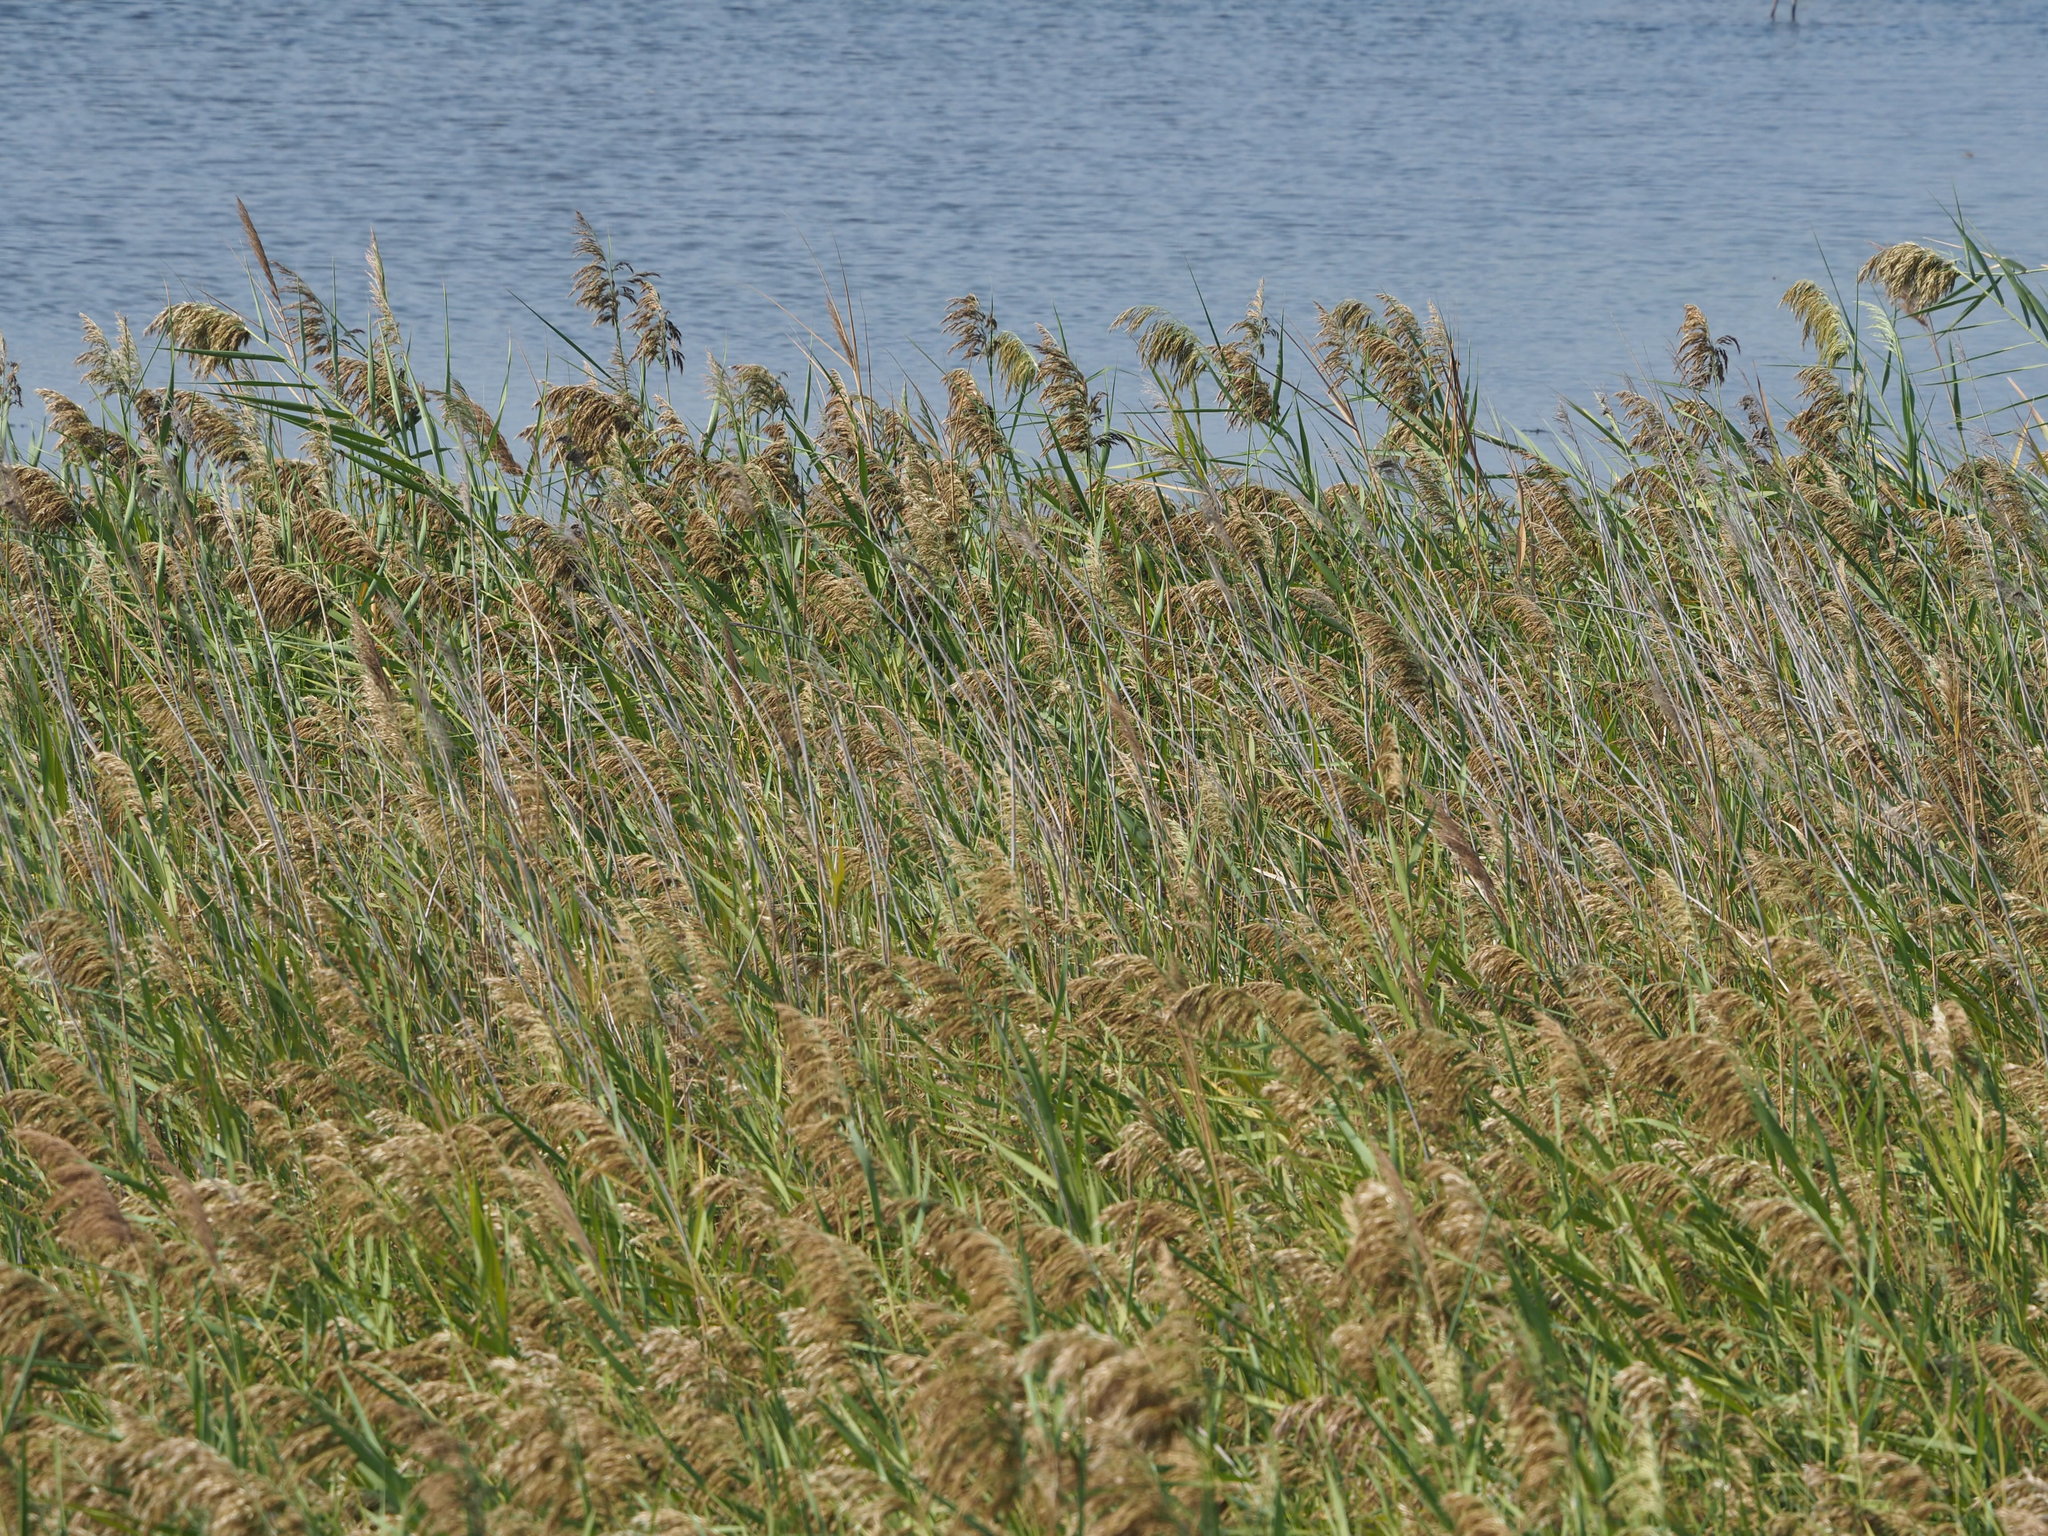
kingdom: Plantae
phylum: Tracheophyta
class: Liliopsida
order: Poales
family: Poaceae
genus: Phragmites
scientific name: Phragmites australis
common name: Common reed
